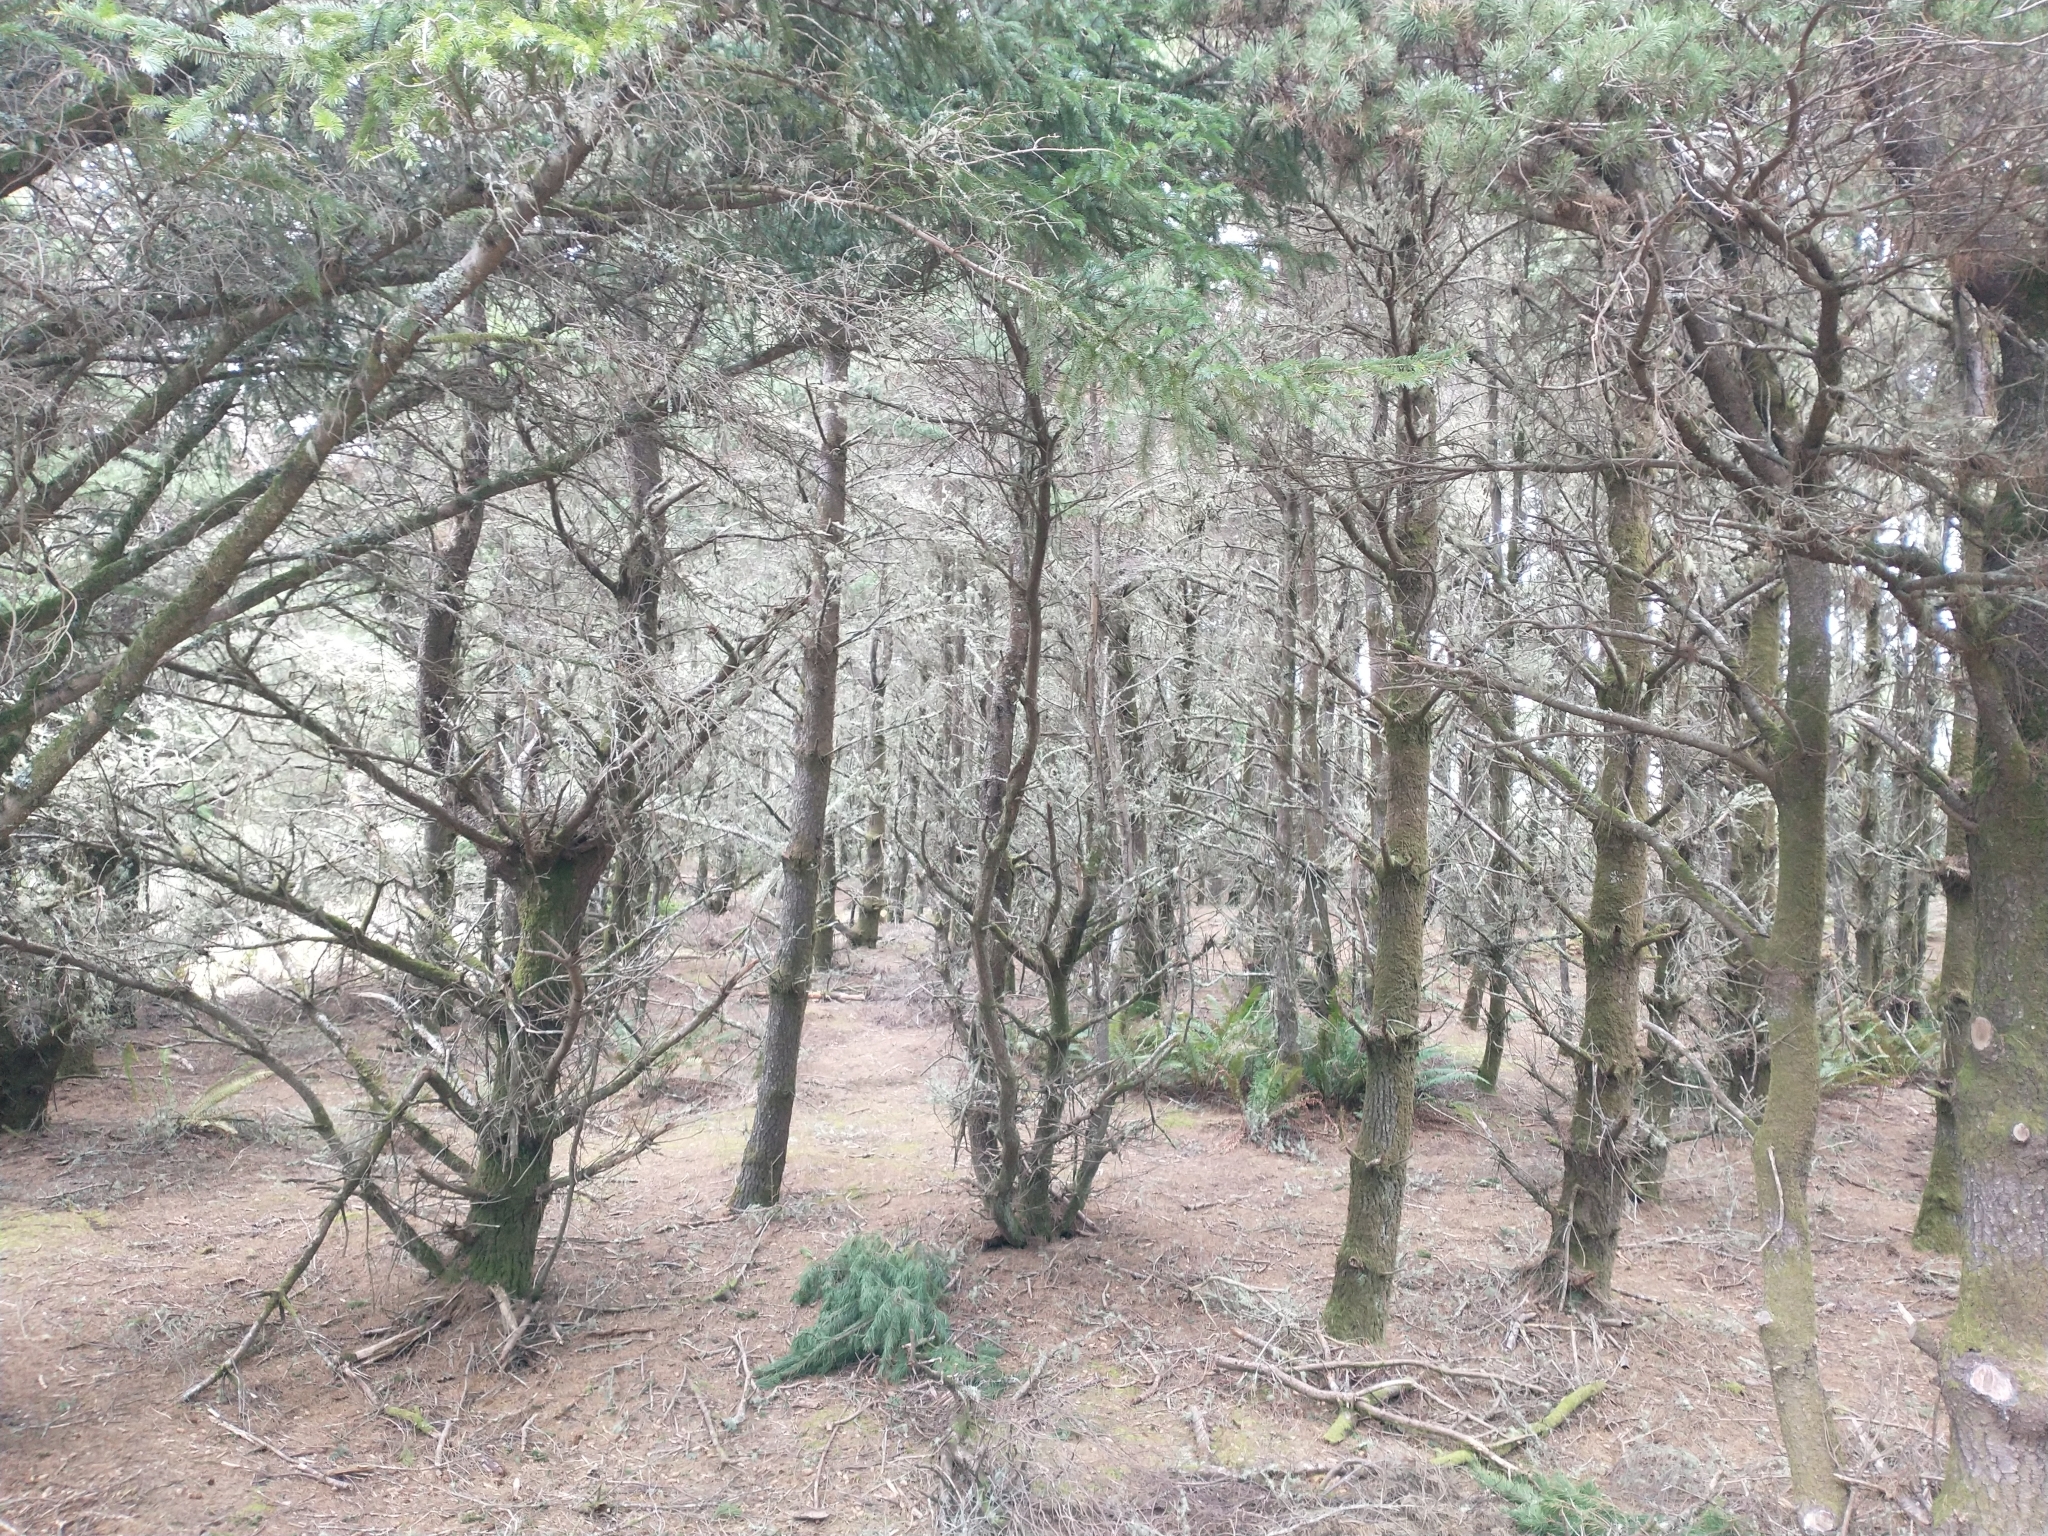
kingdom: Plantae
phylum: Tracheophyta
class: Pinopsida
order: Pinales
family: Pinaceae
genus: Pinus
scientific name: Pinus contorta
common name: Lodgepole pine
